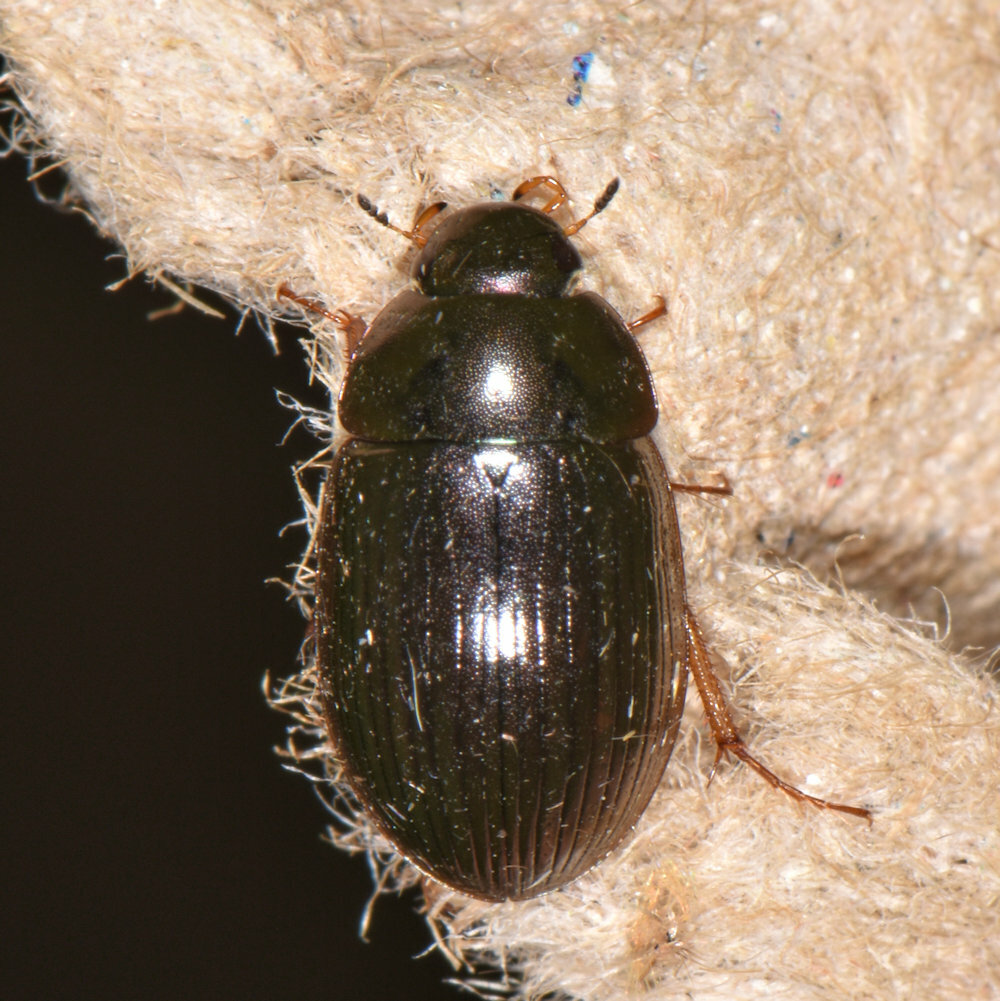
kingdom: Animalia
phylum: Arthropoda
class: Insecta
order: Coleoptera
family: Hydrophilidae
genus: Hydrobius
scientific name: Hydrobius fuscipes
